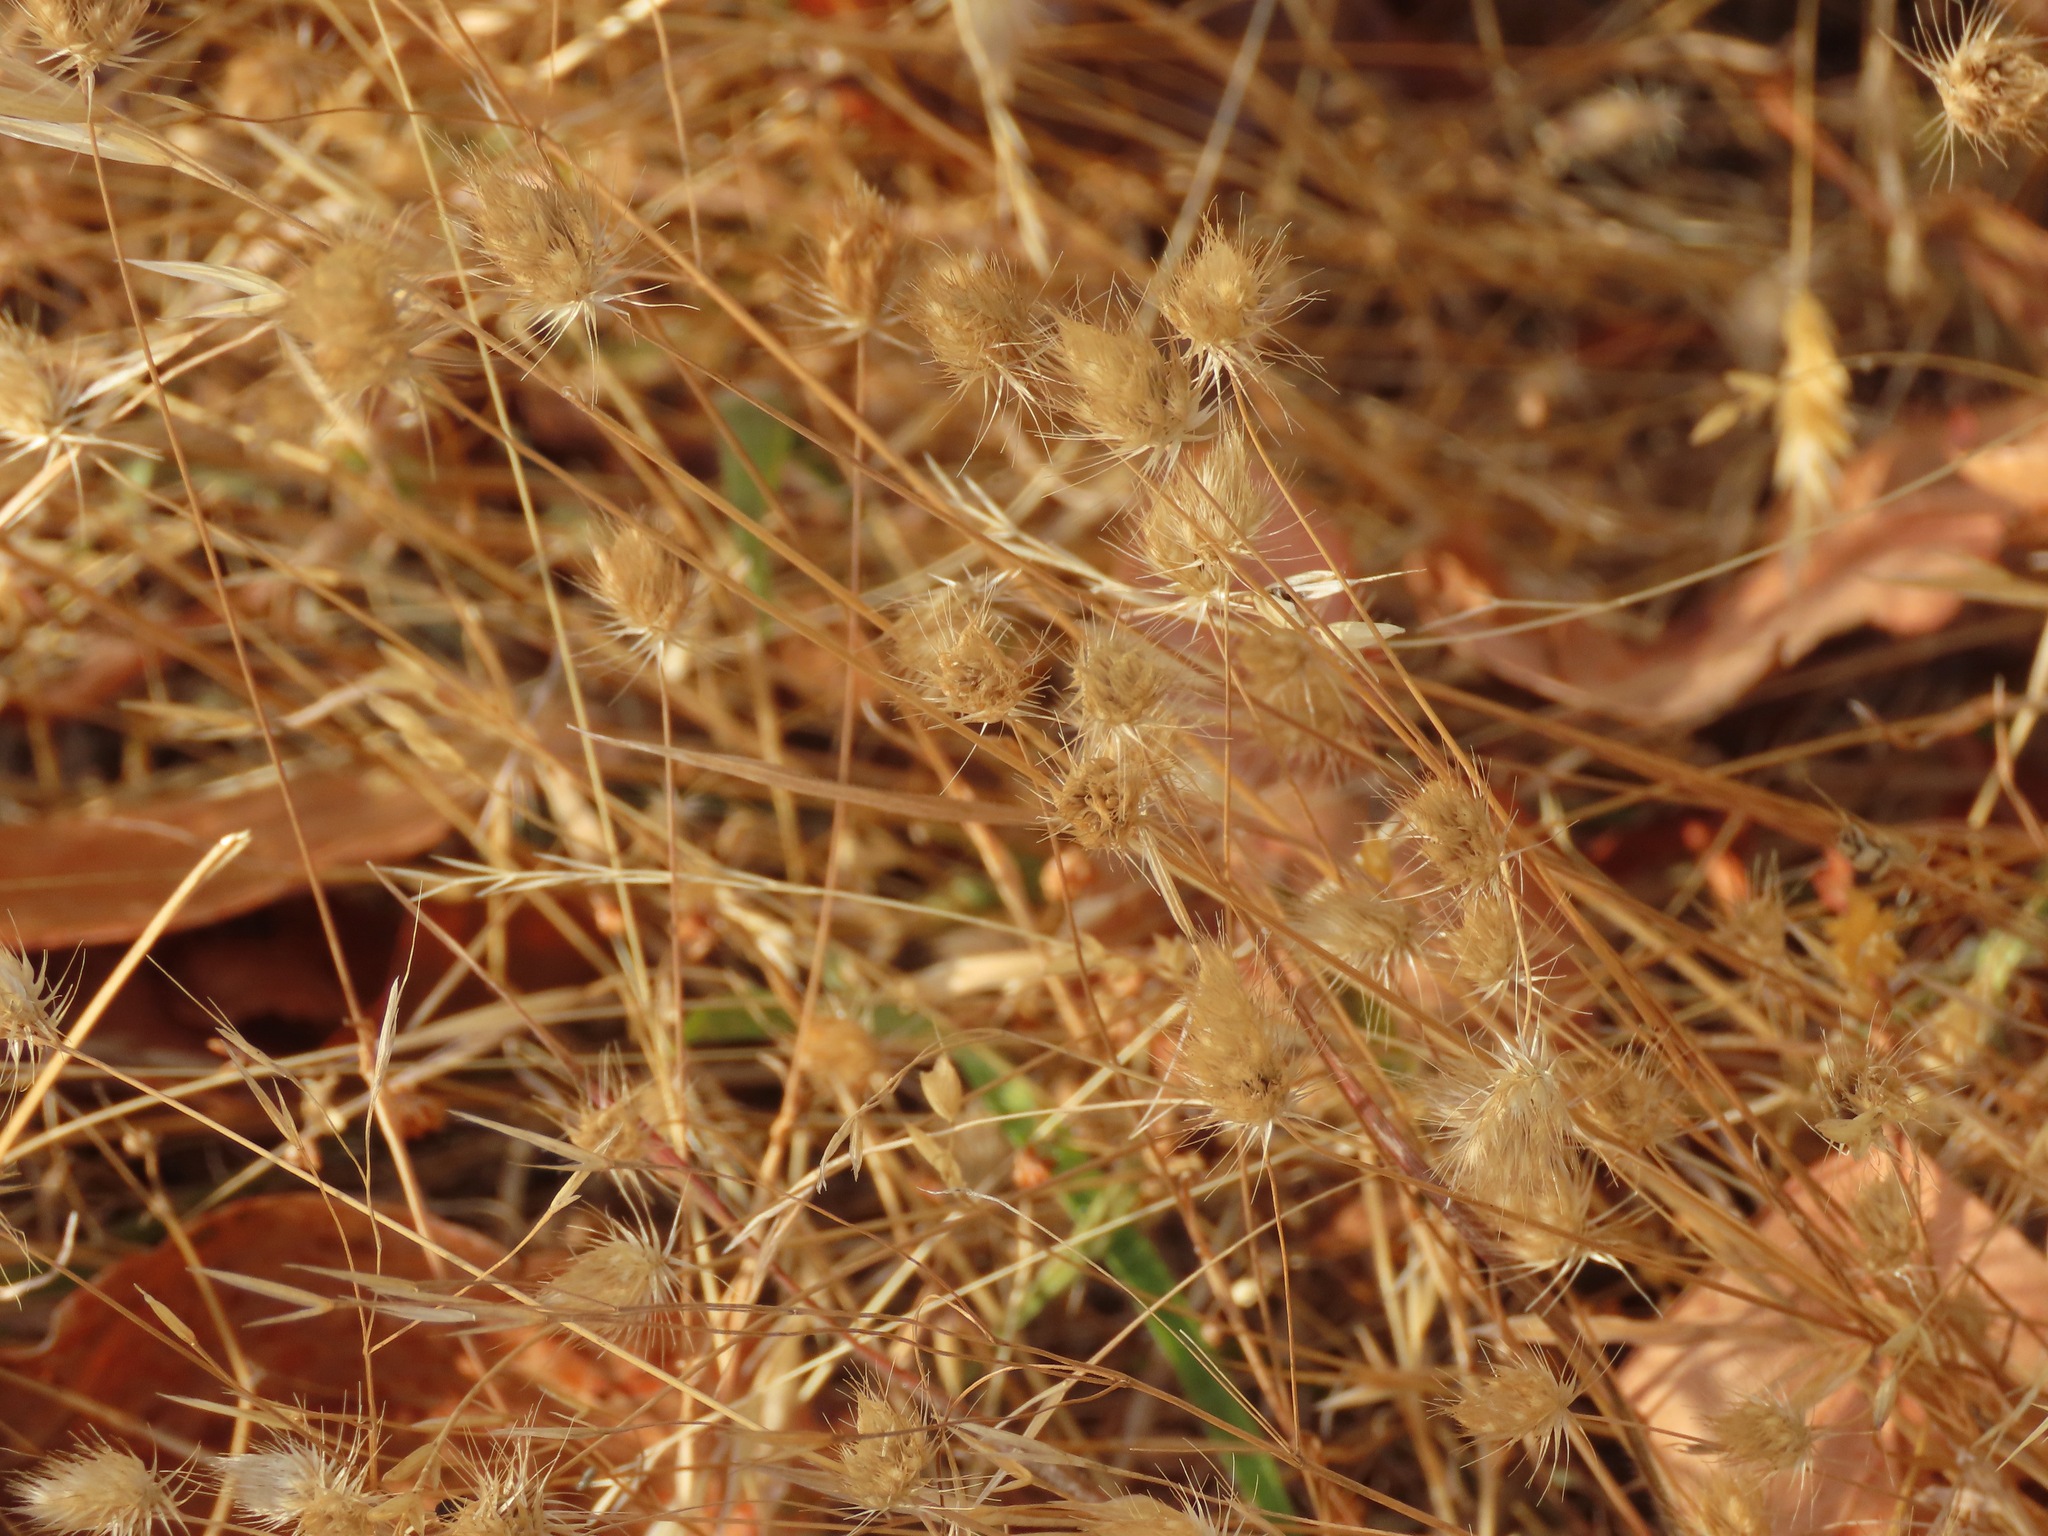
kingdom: Plantae
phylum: Tracheophyta
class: Liliopsida
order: Poales
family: Poaceae
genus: Cynosurus
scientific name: Cynosurus echinatus
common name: Rough dog's-tail
